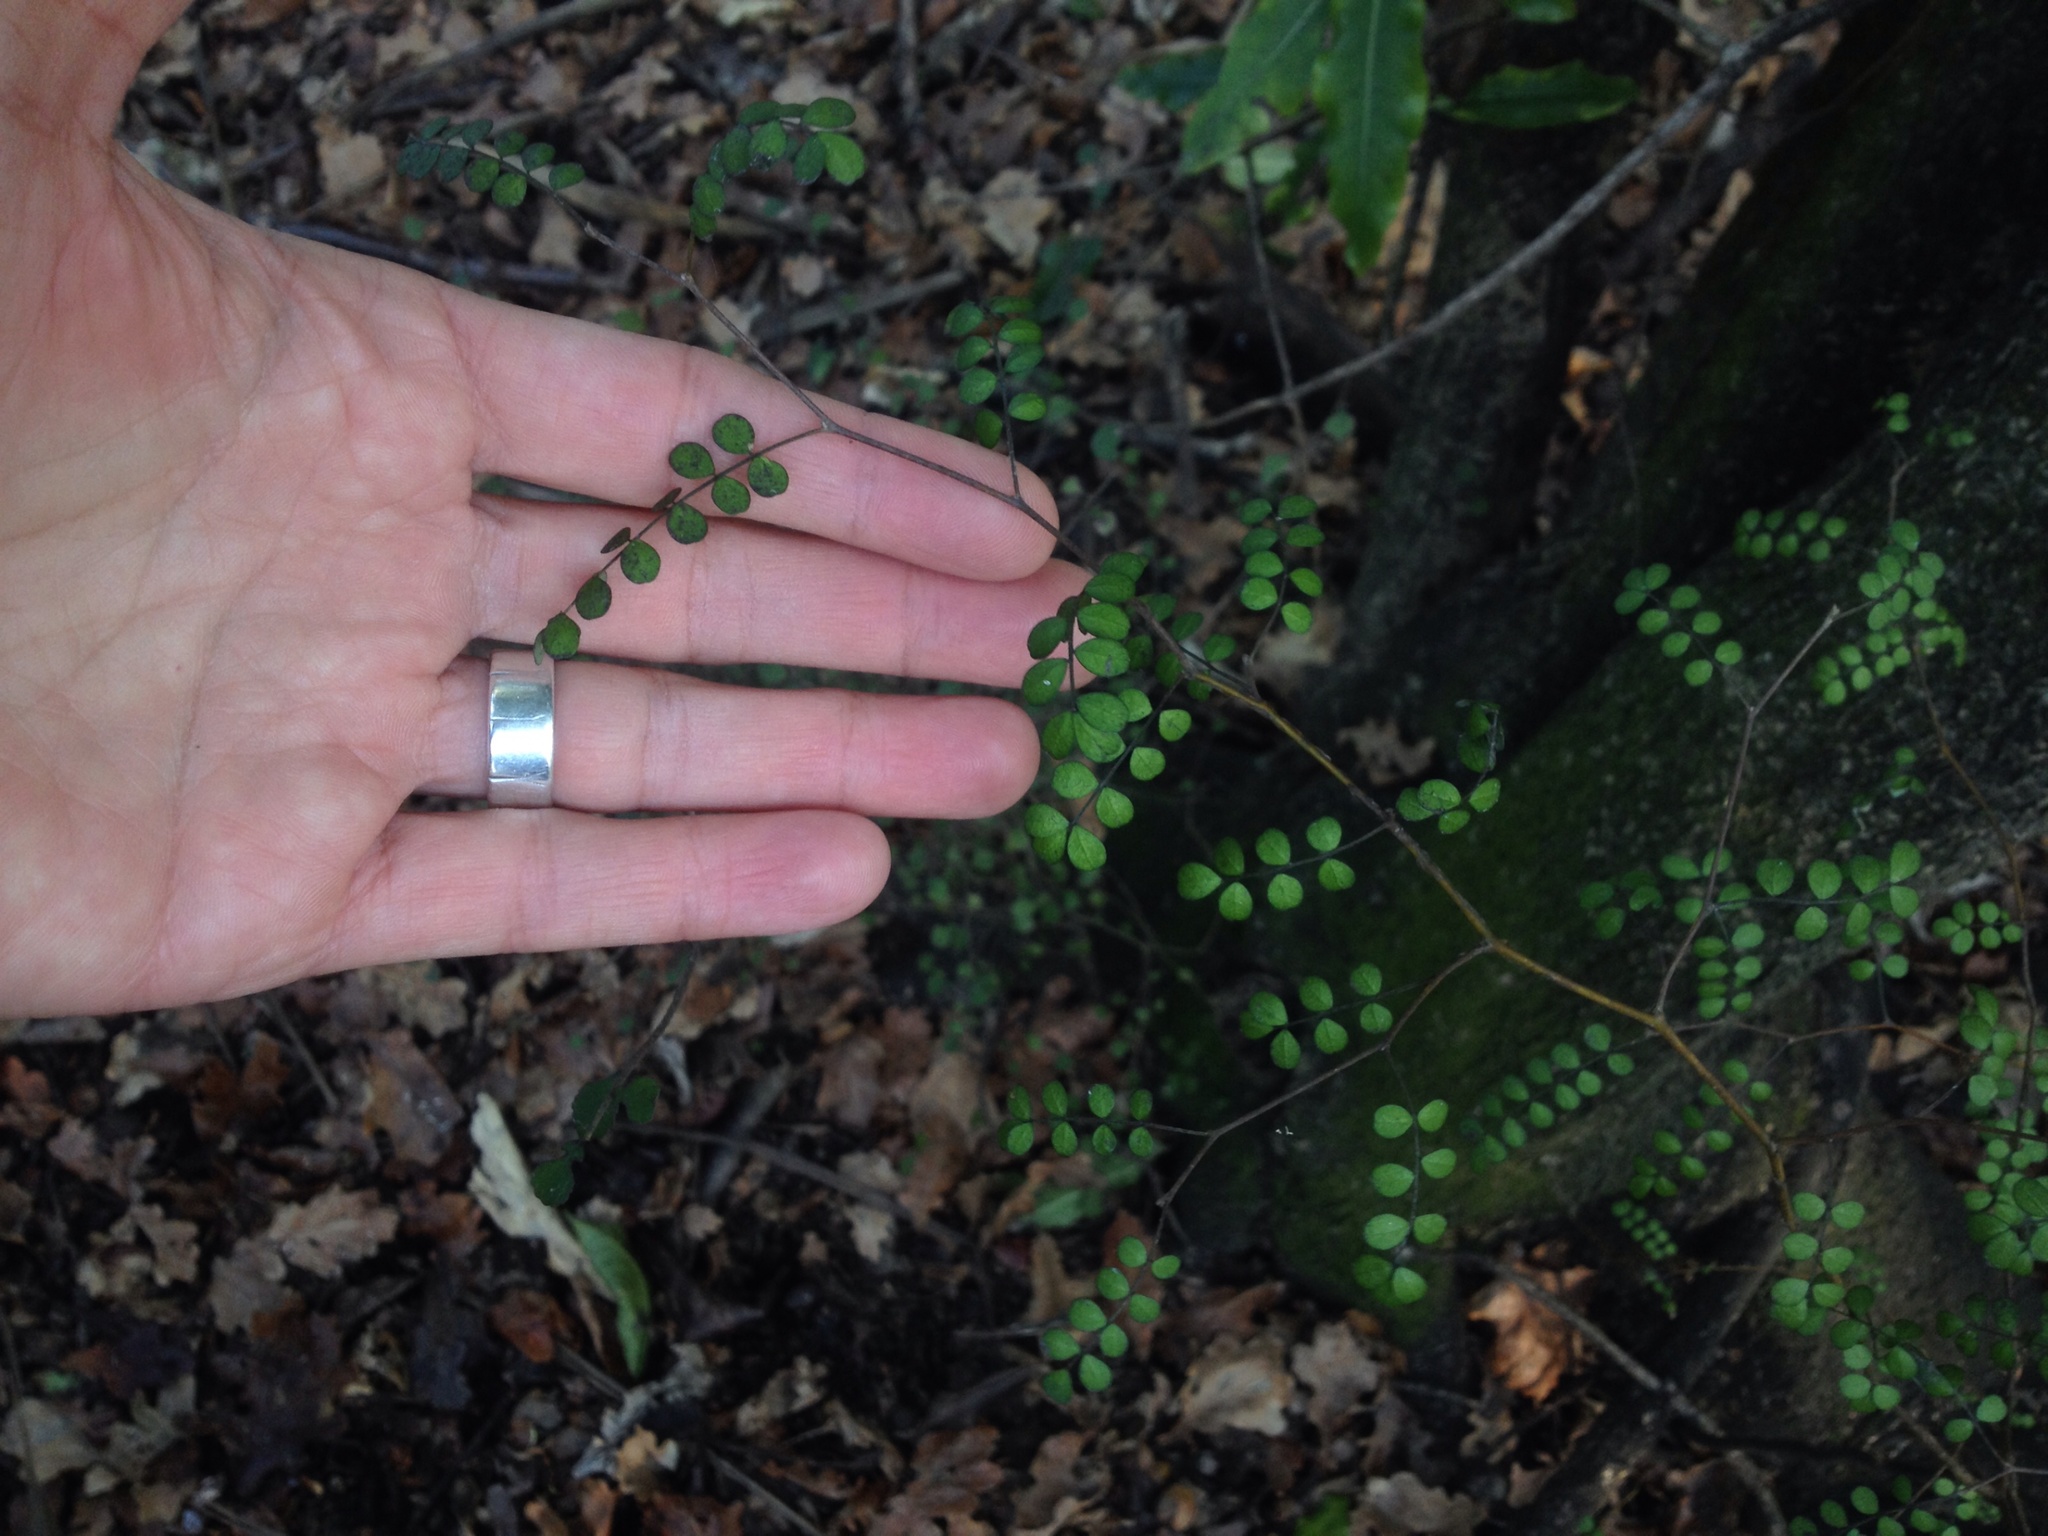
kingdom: Plantae
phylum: Tracheophyta
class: Magnoliopsida
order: Fabales
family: Fabaceae
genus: Sophora
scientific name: Sophora microphylla
